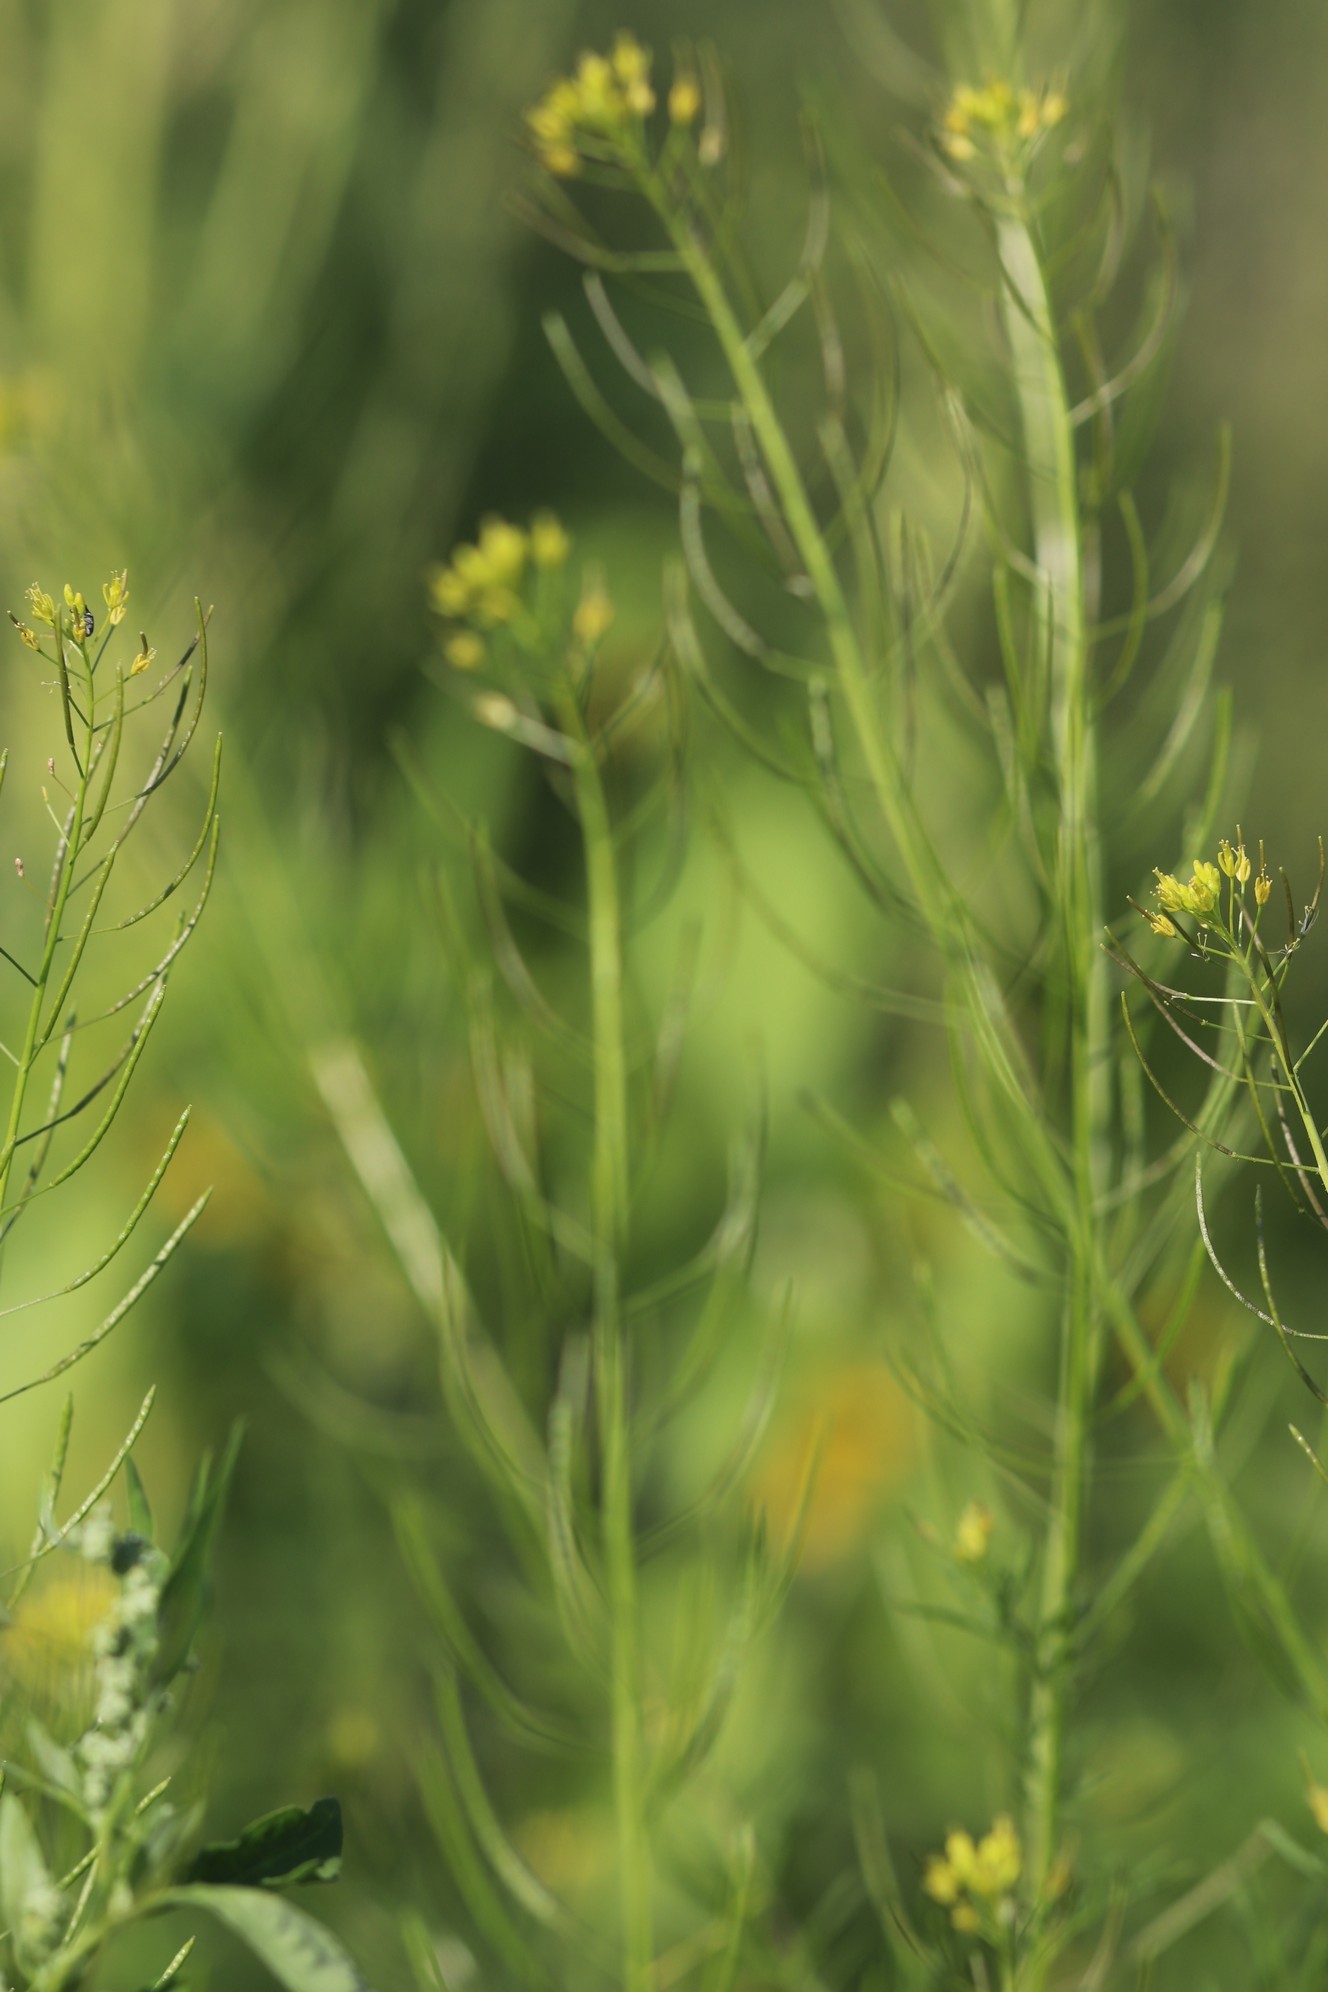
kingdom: Plantae
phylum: Tracheophyta
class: Magnoliopsida
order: Brassicales
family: Brassicaceae
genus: Descurainia
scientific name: Descurainia sophia
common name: Flixweed
